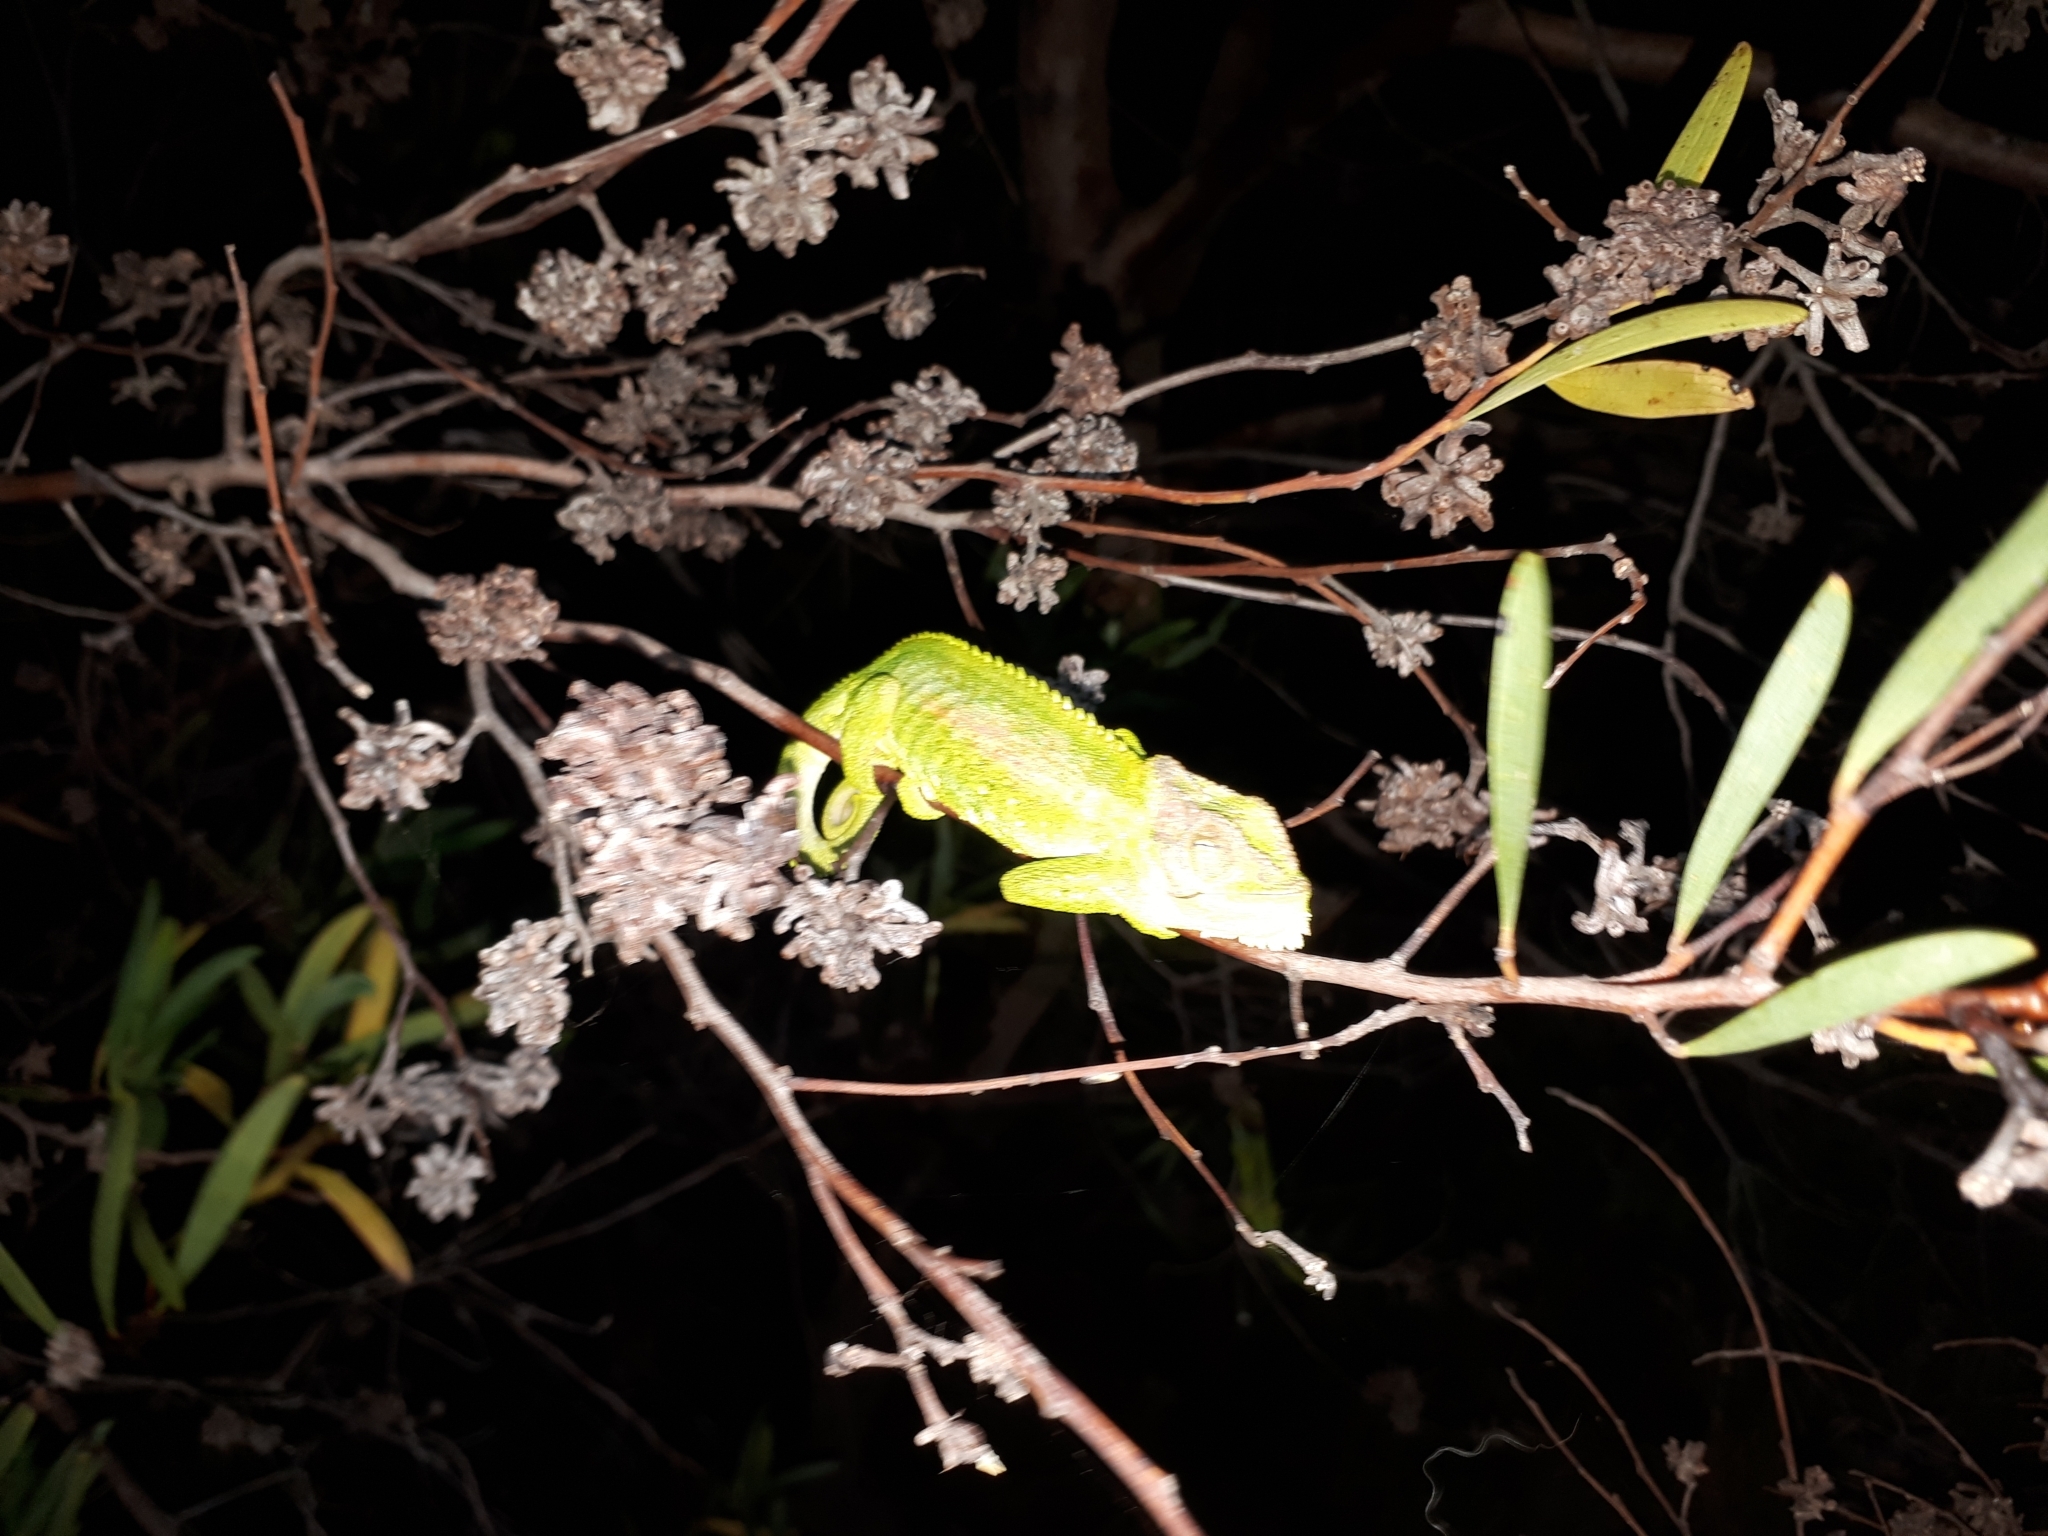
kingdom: Animalia
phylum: Chordata
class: Squamata
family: Chamaeleonidae
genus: Bradypodion
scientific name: Bradypodion pumilum
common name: Cape dwarf chameleon
